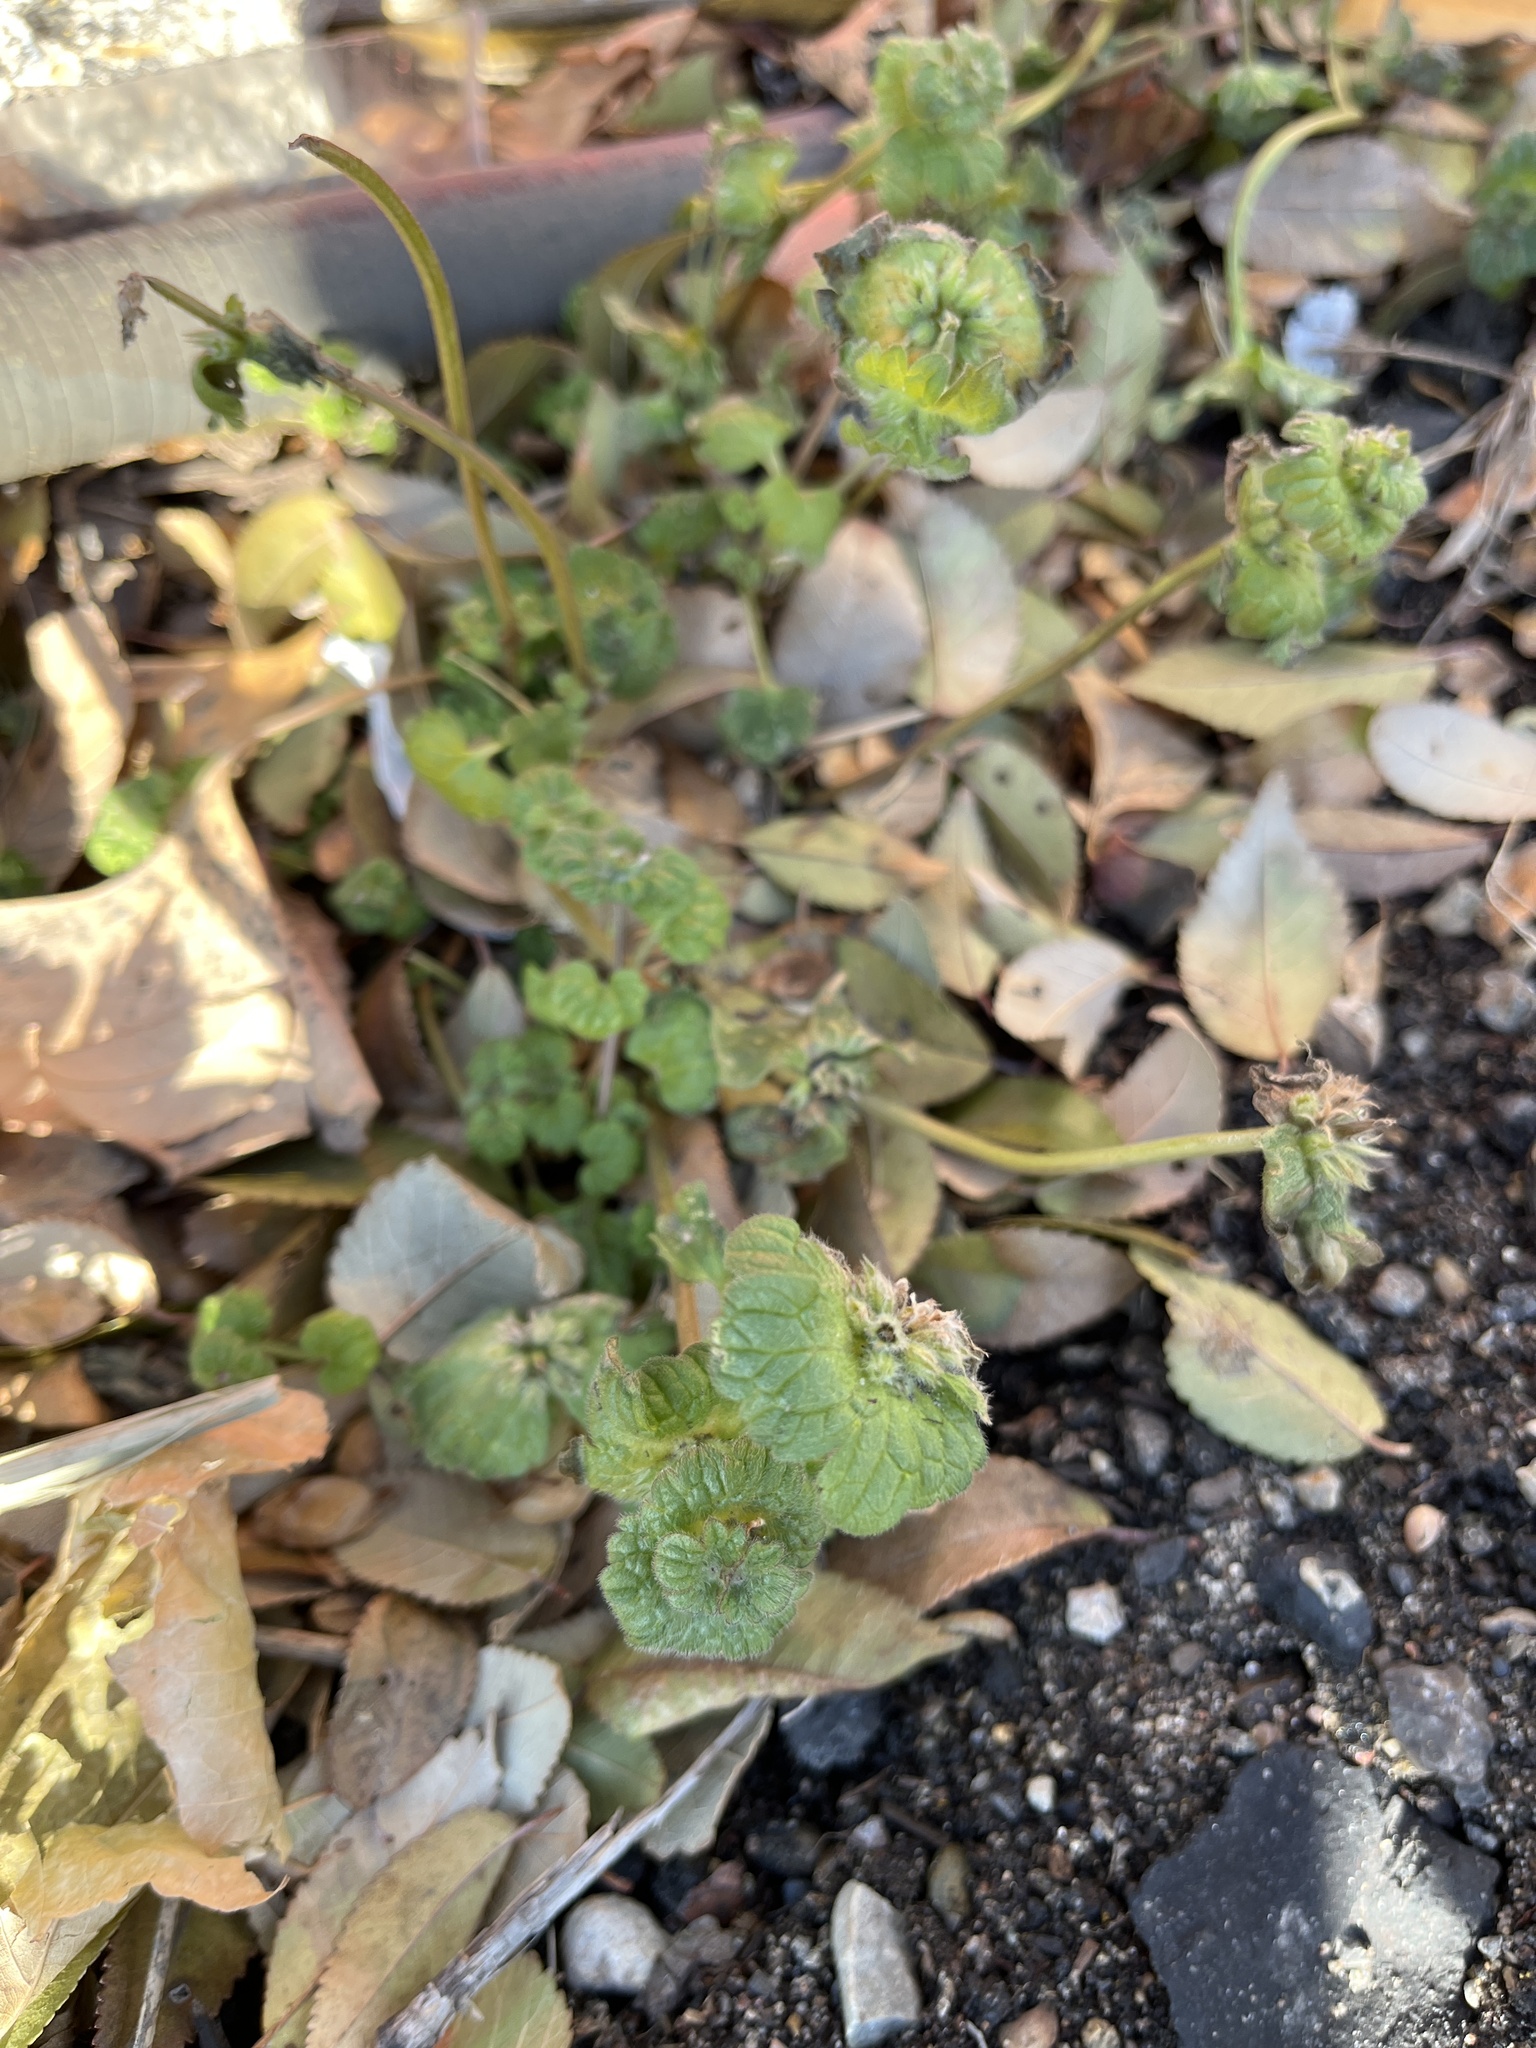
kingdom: Plantae
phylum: Tracheophyta
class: Magnoliopsida
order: Lamiales
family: Lamiaceae
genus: Lamium
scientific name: Lamium amplexicaule
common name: Henbit dead-nettle
